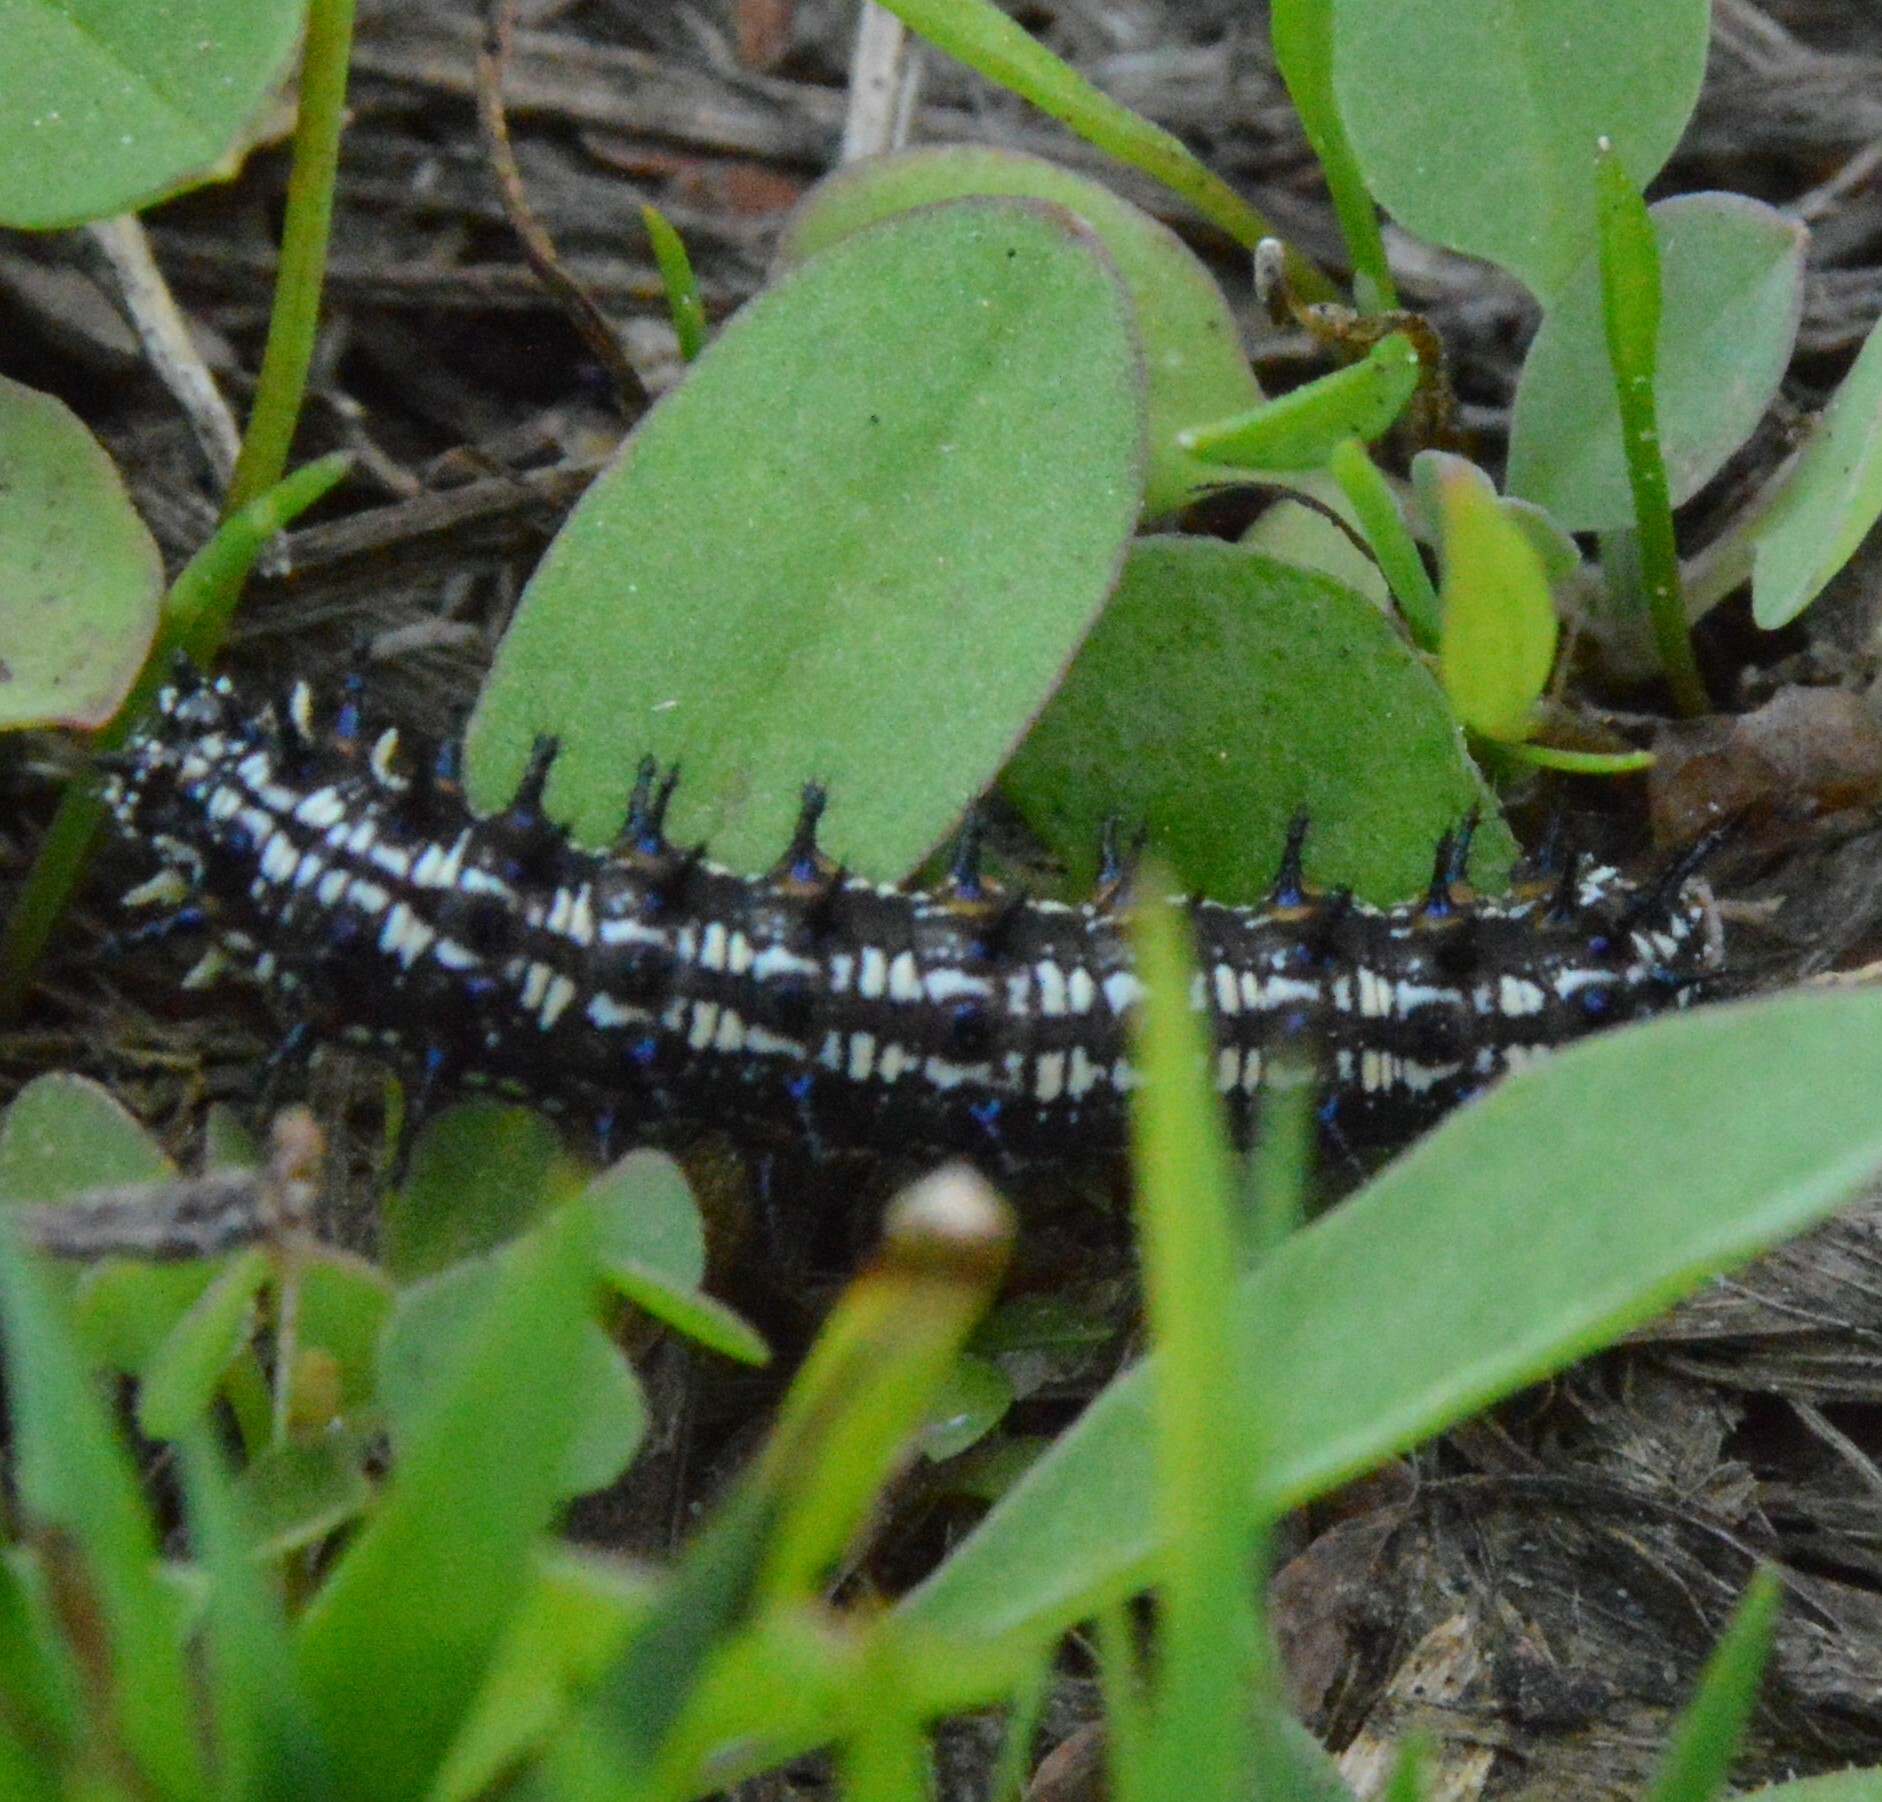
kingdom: Animalia
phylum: Arthropoda
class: Insecta
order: Lepidoptera
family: Nymphalidae
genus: Junonia
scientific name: Junonia coenia
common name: Common buckeye
